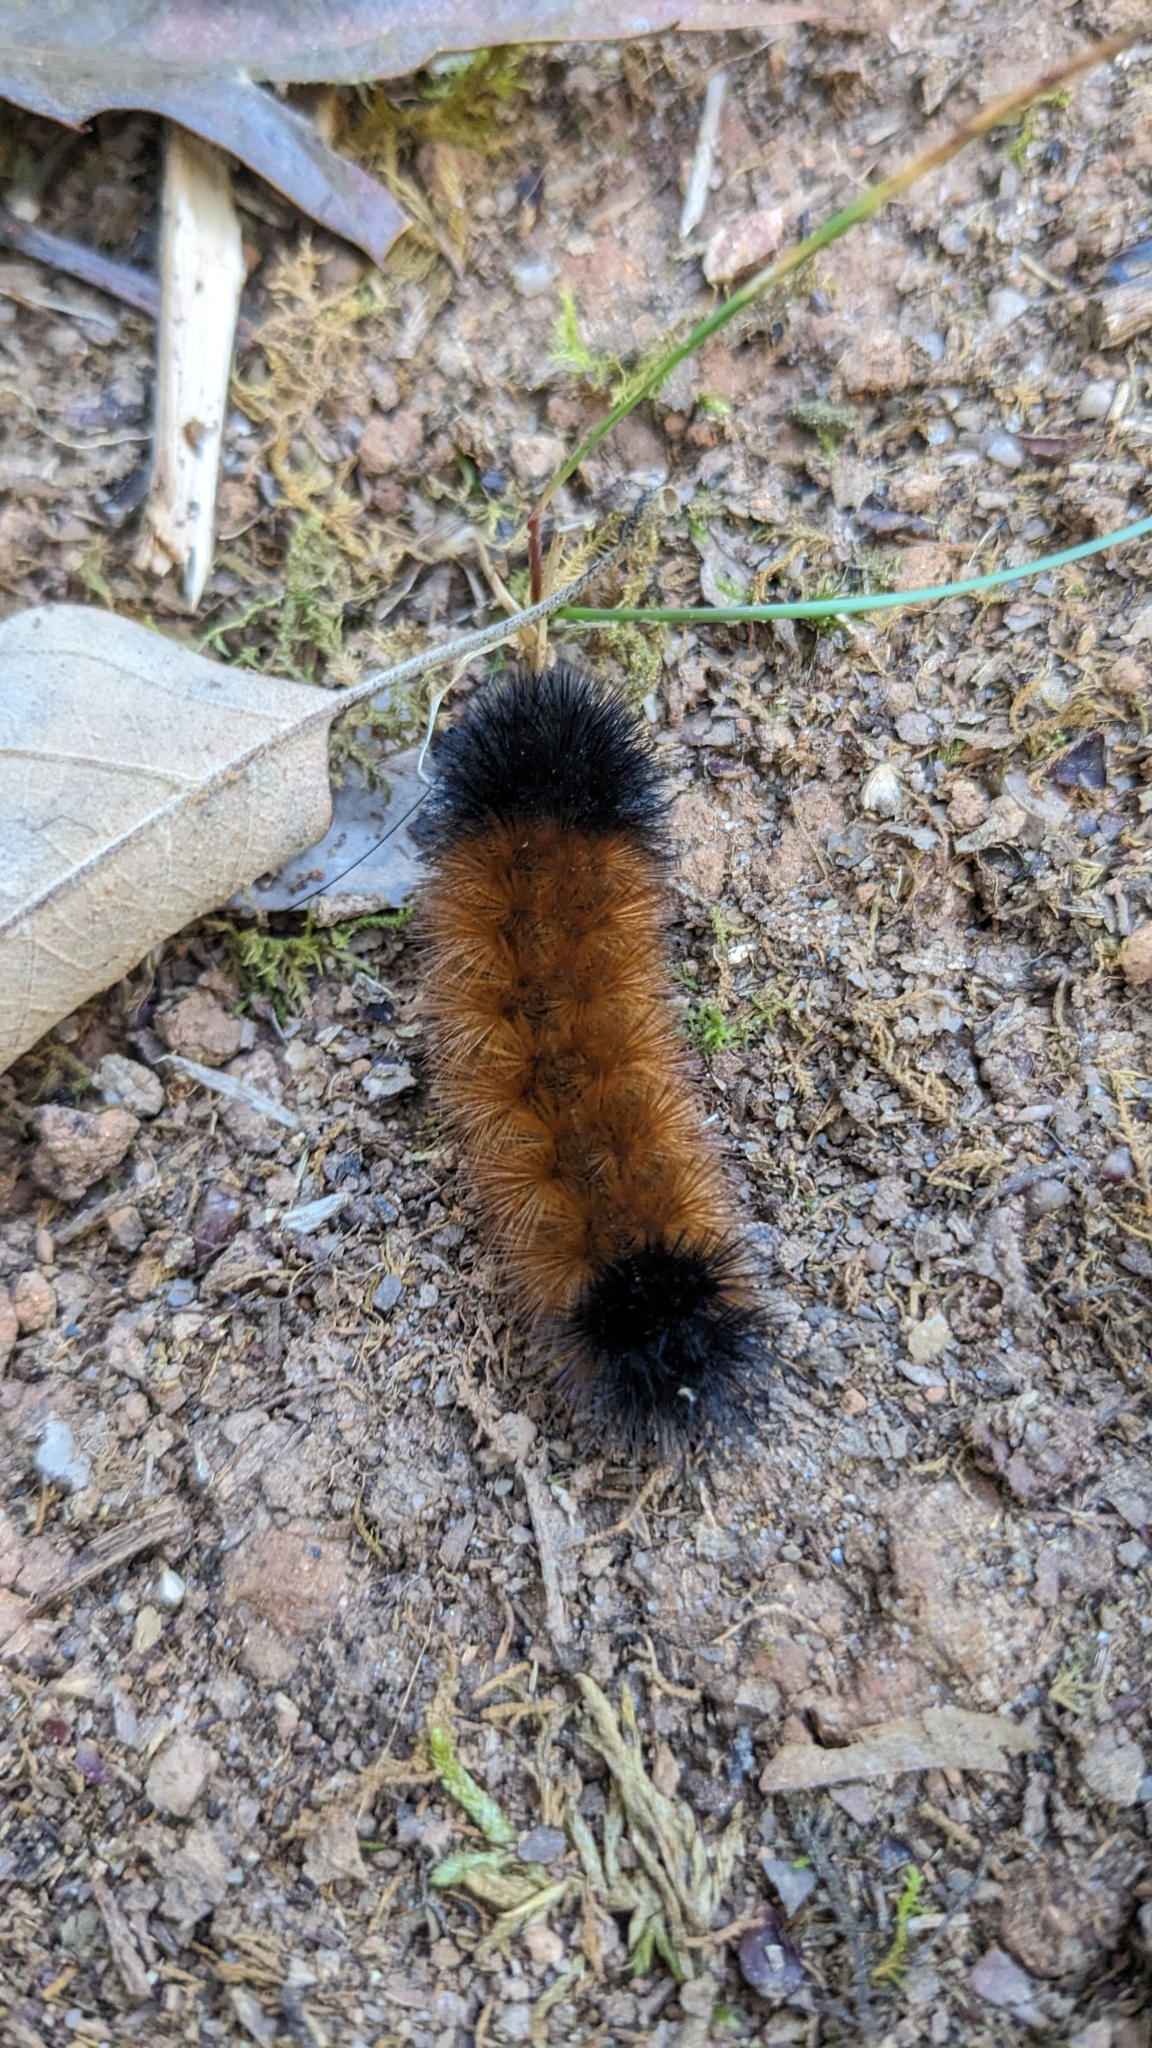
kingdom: Animalia
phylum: Arthropoda
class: Insecta
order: Lepidoptera
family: Erebidae
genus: Pyrrharctia
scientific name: Pyrrharctia isabella
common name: Isabella tiger moth
